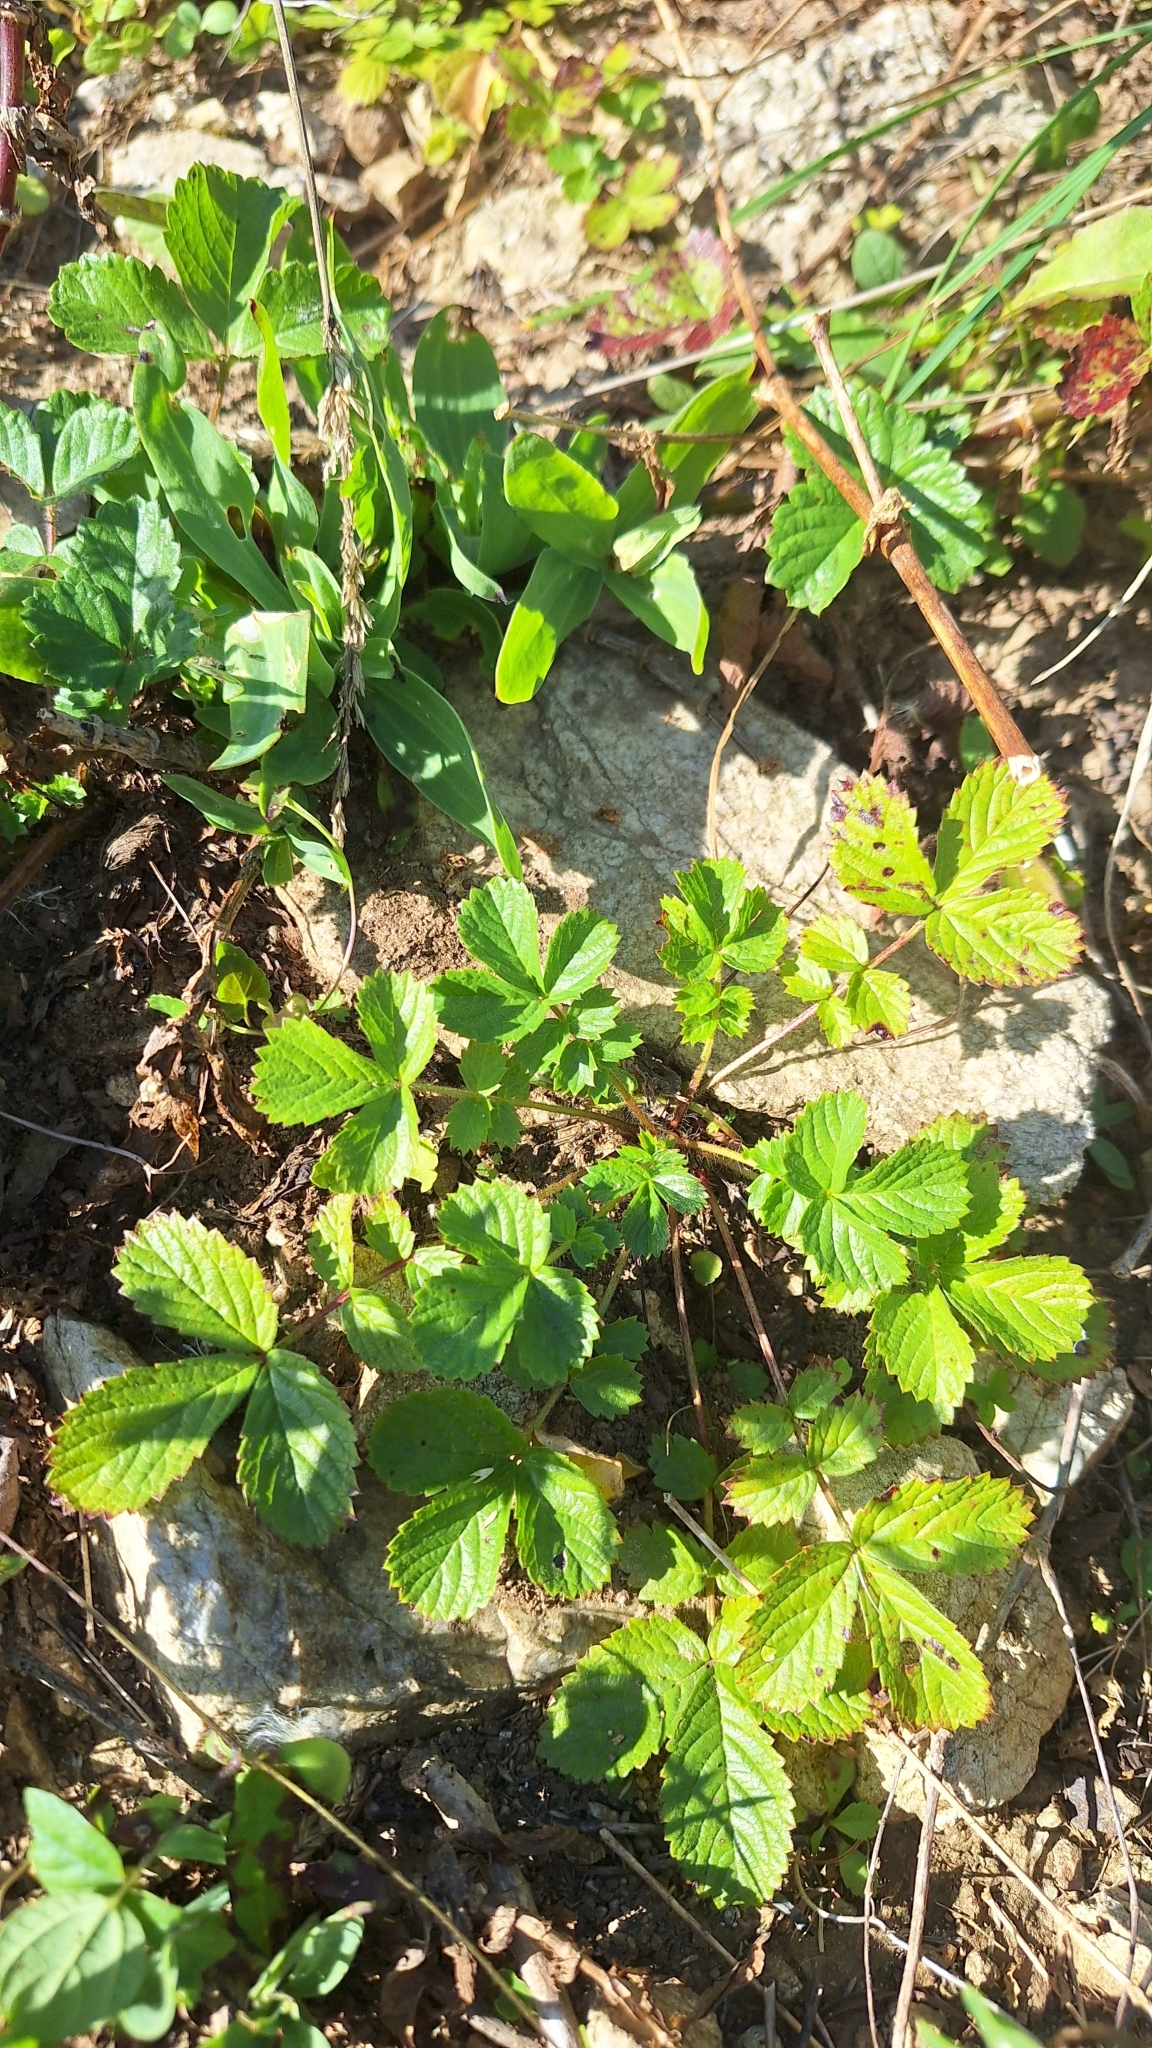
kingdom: Plantae
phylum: Tracheophyta
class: Magnoliopsida
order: Rosales
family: Rosaceae
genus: Potentilla
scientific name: Potentilla fragarioides
